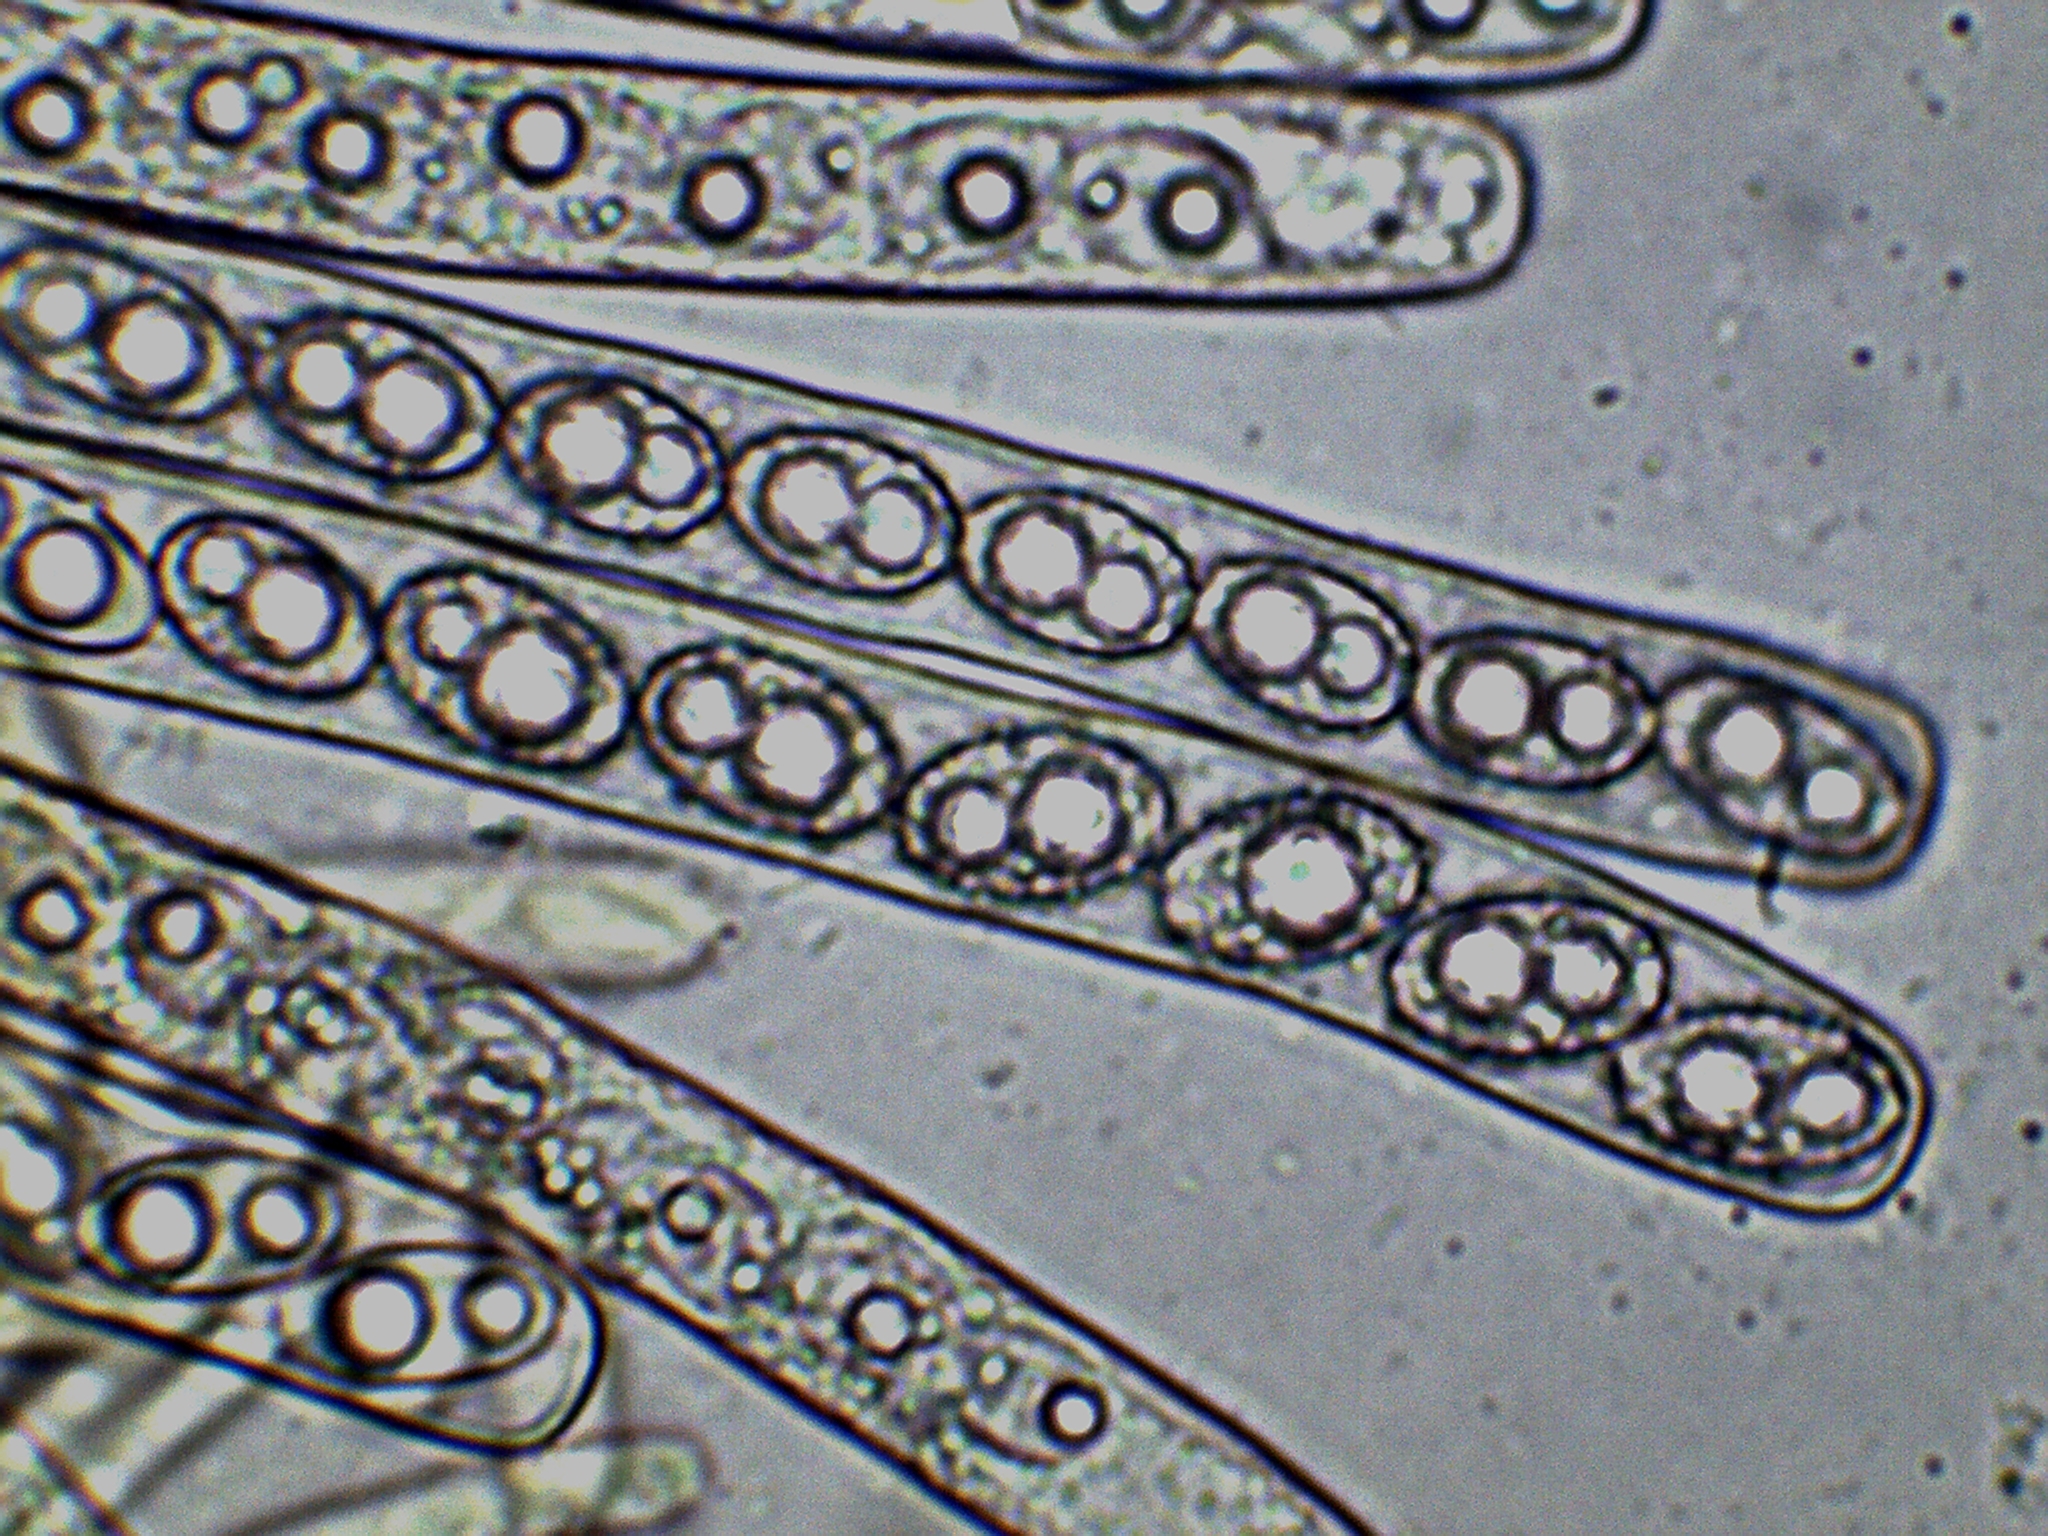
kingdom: Fungi
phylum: Ascomycota
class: Pezizomycetes
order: Pezizales
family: Pezizaceae
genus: Pachyella
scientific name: Pachyella celtica
